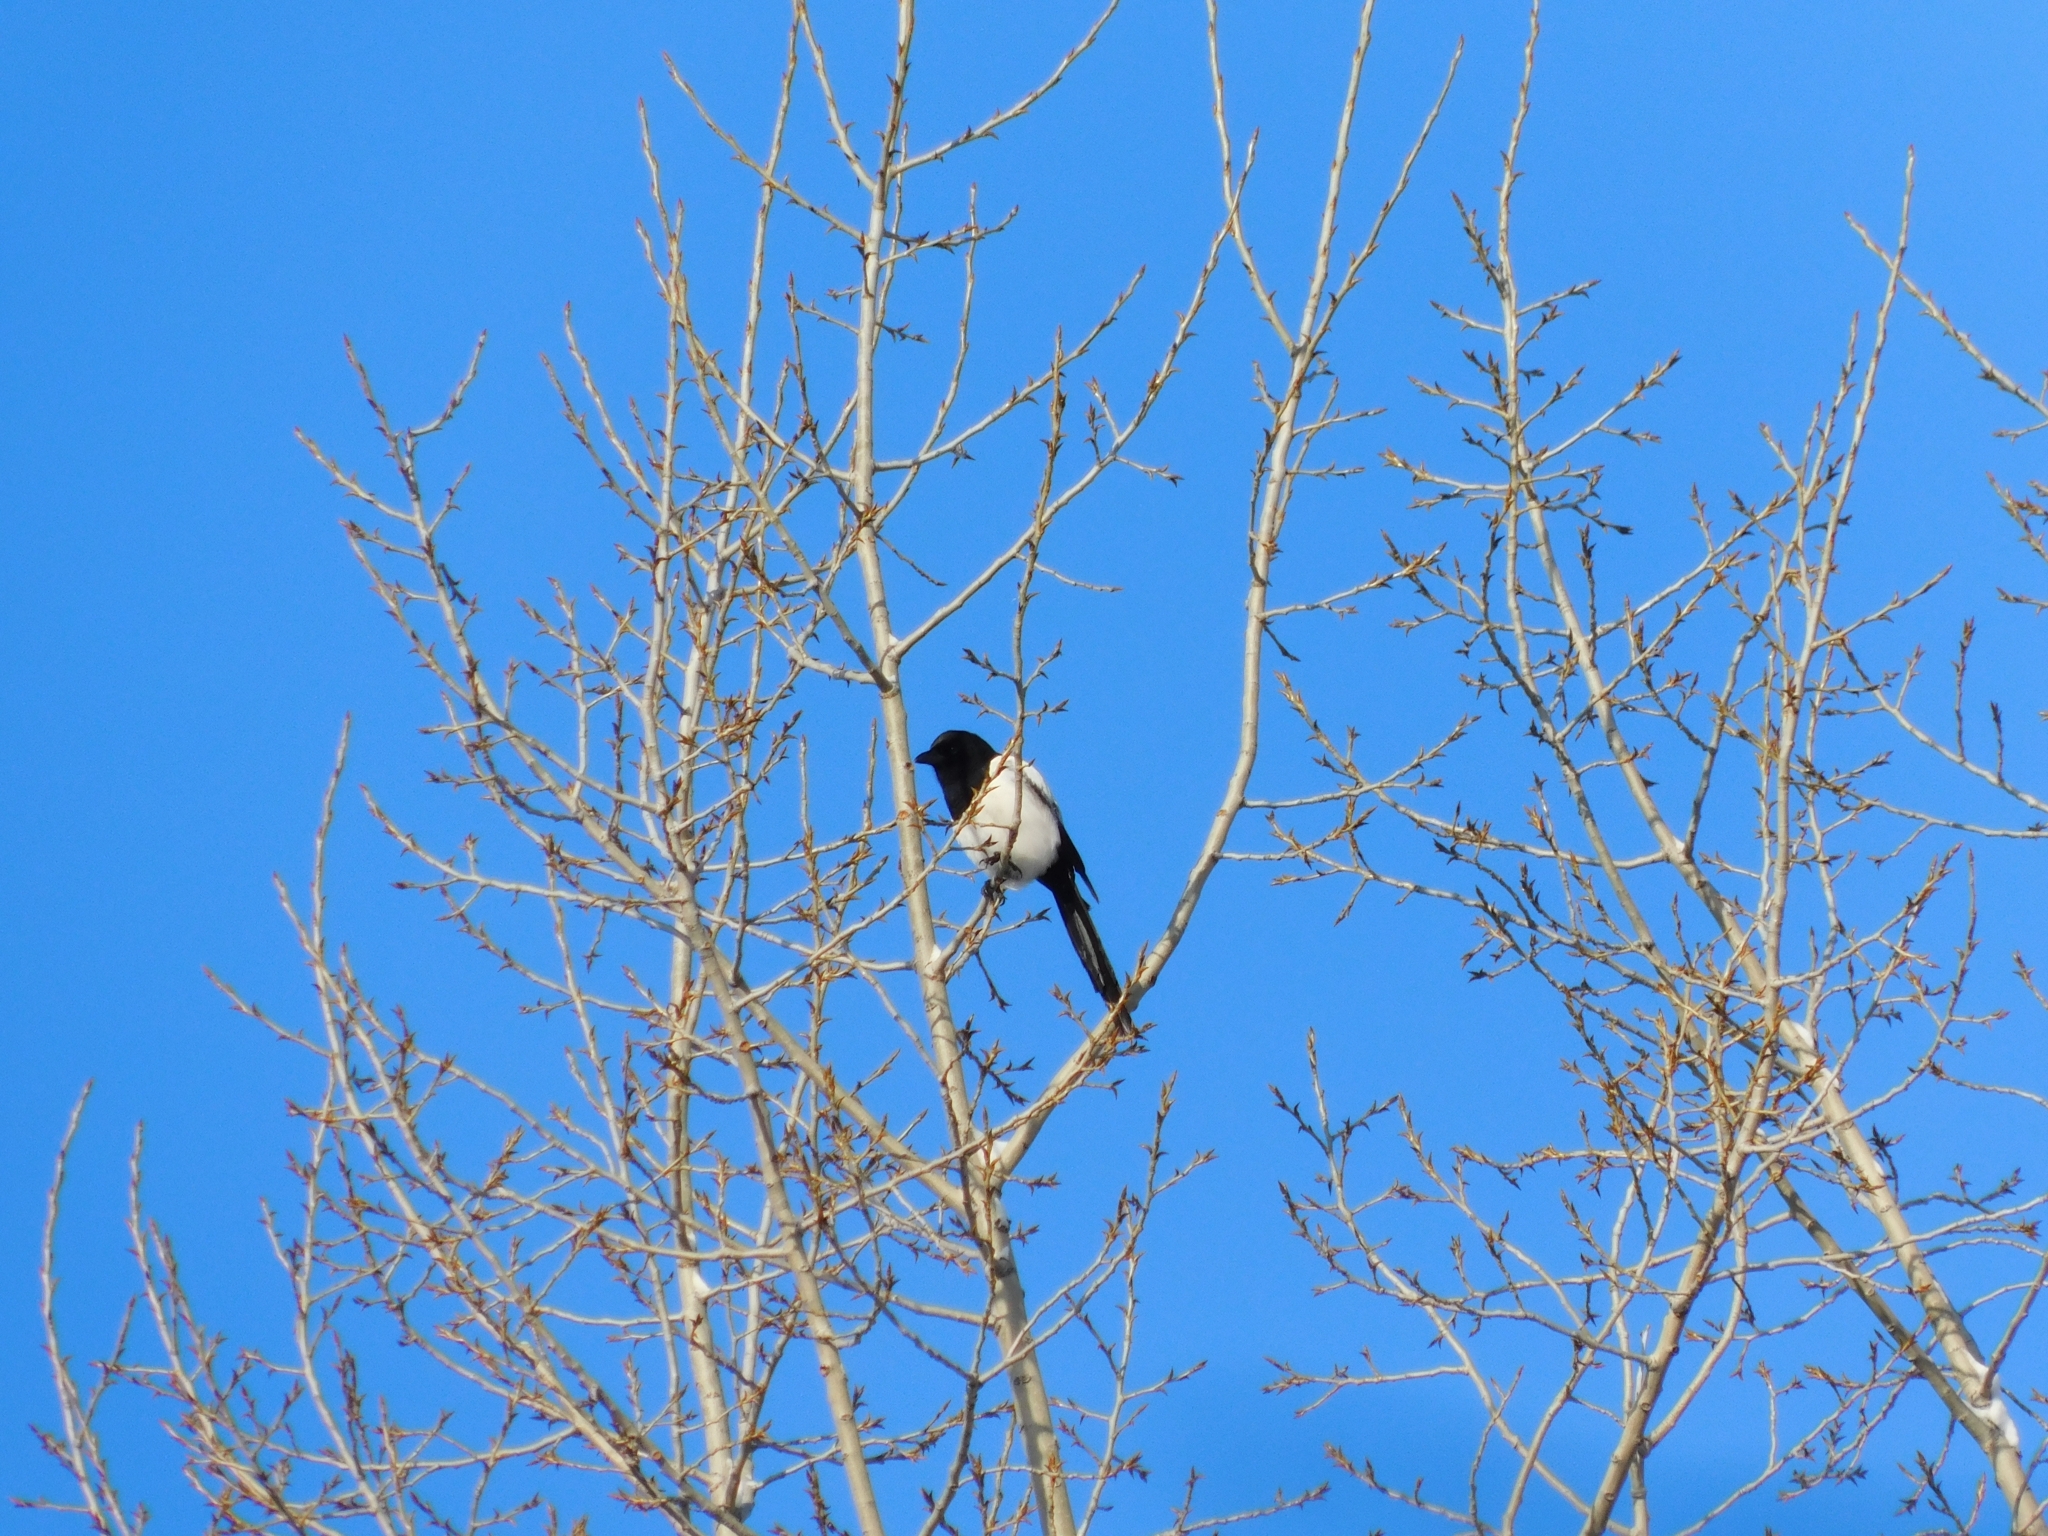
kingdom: Animalia
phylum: Chordata
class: Aves
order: Passeriformes
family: Corvidae
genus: Pica
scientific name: Pica pica
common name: Eurasian magpie
